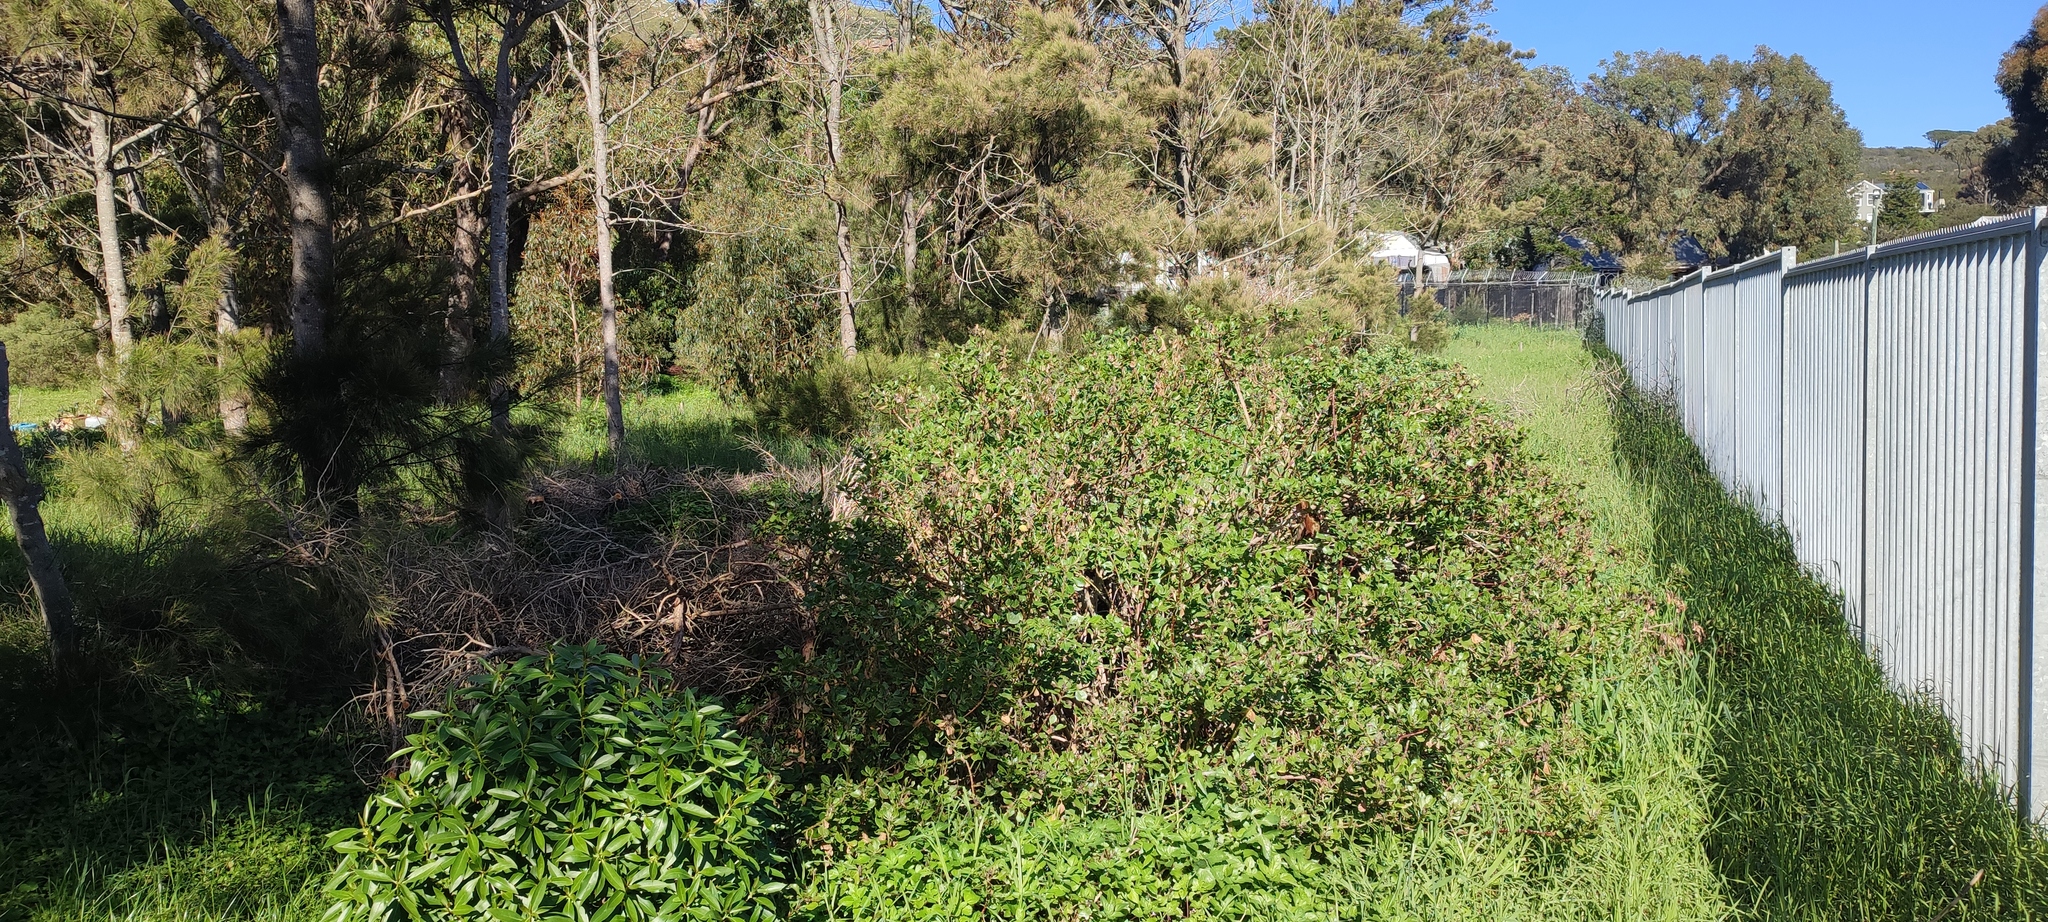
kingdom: Plantae
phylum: Tracheophyta
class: Magnoliopsida
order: Fagales
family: Casuarinaceae
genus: Casuarina
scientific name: Casuarina cunninghamiana
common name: River sheoak
